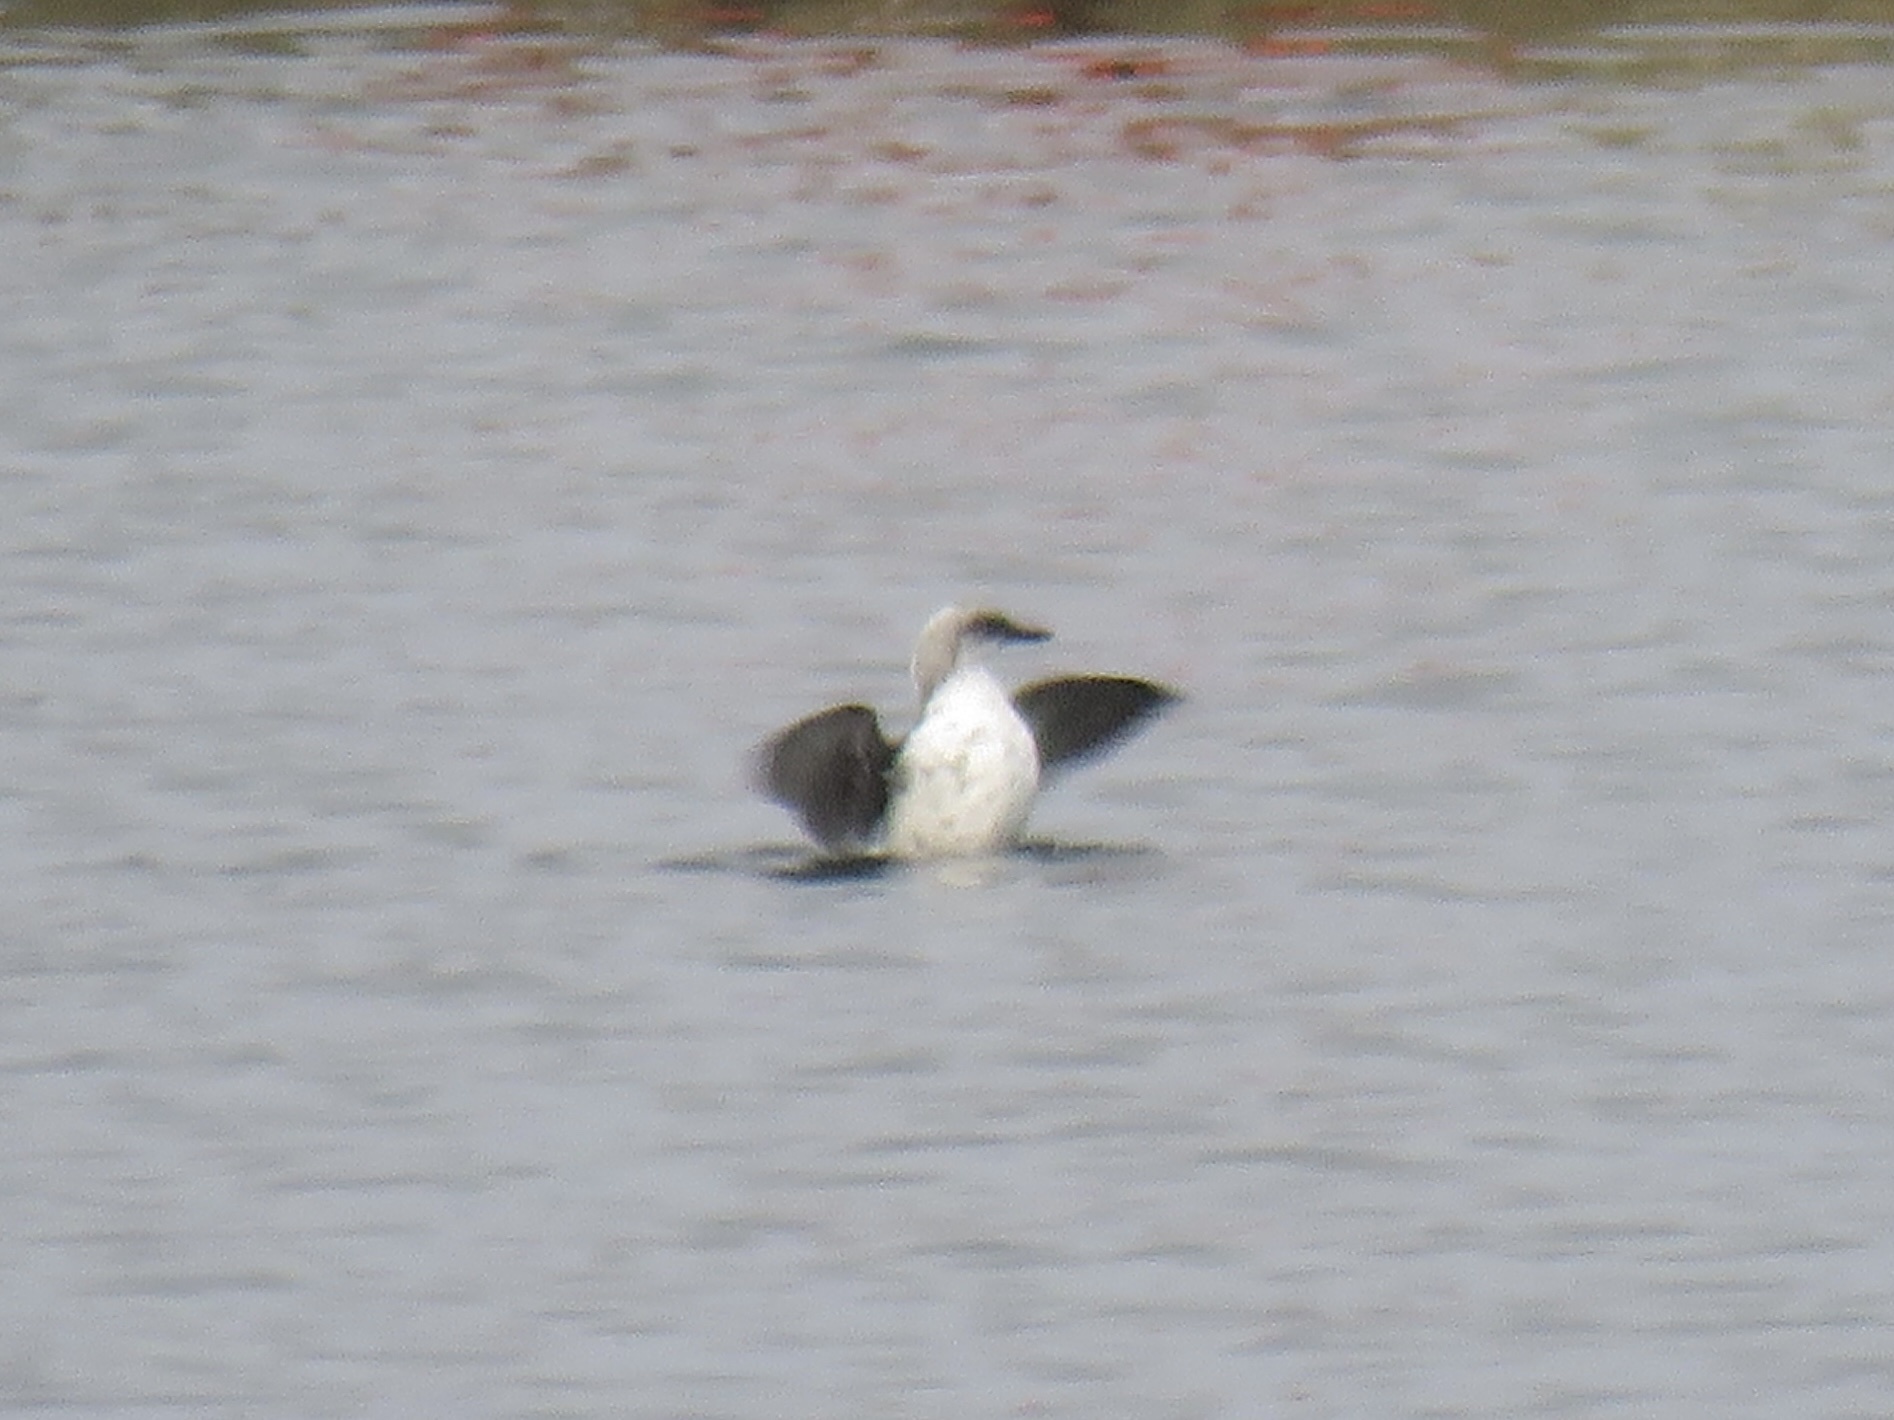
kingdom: Animalia
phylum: Chordata
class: Aves
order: Charadriiformes
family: Alcidae
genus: Cepphus
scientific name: Cepphus columba
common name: Pigeon guillemot
